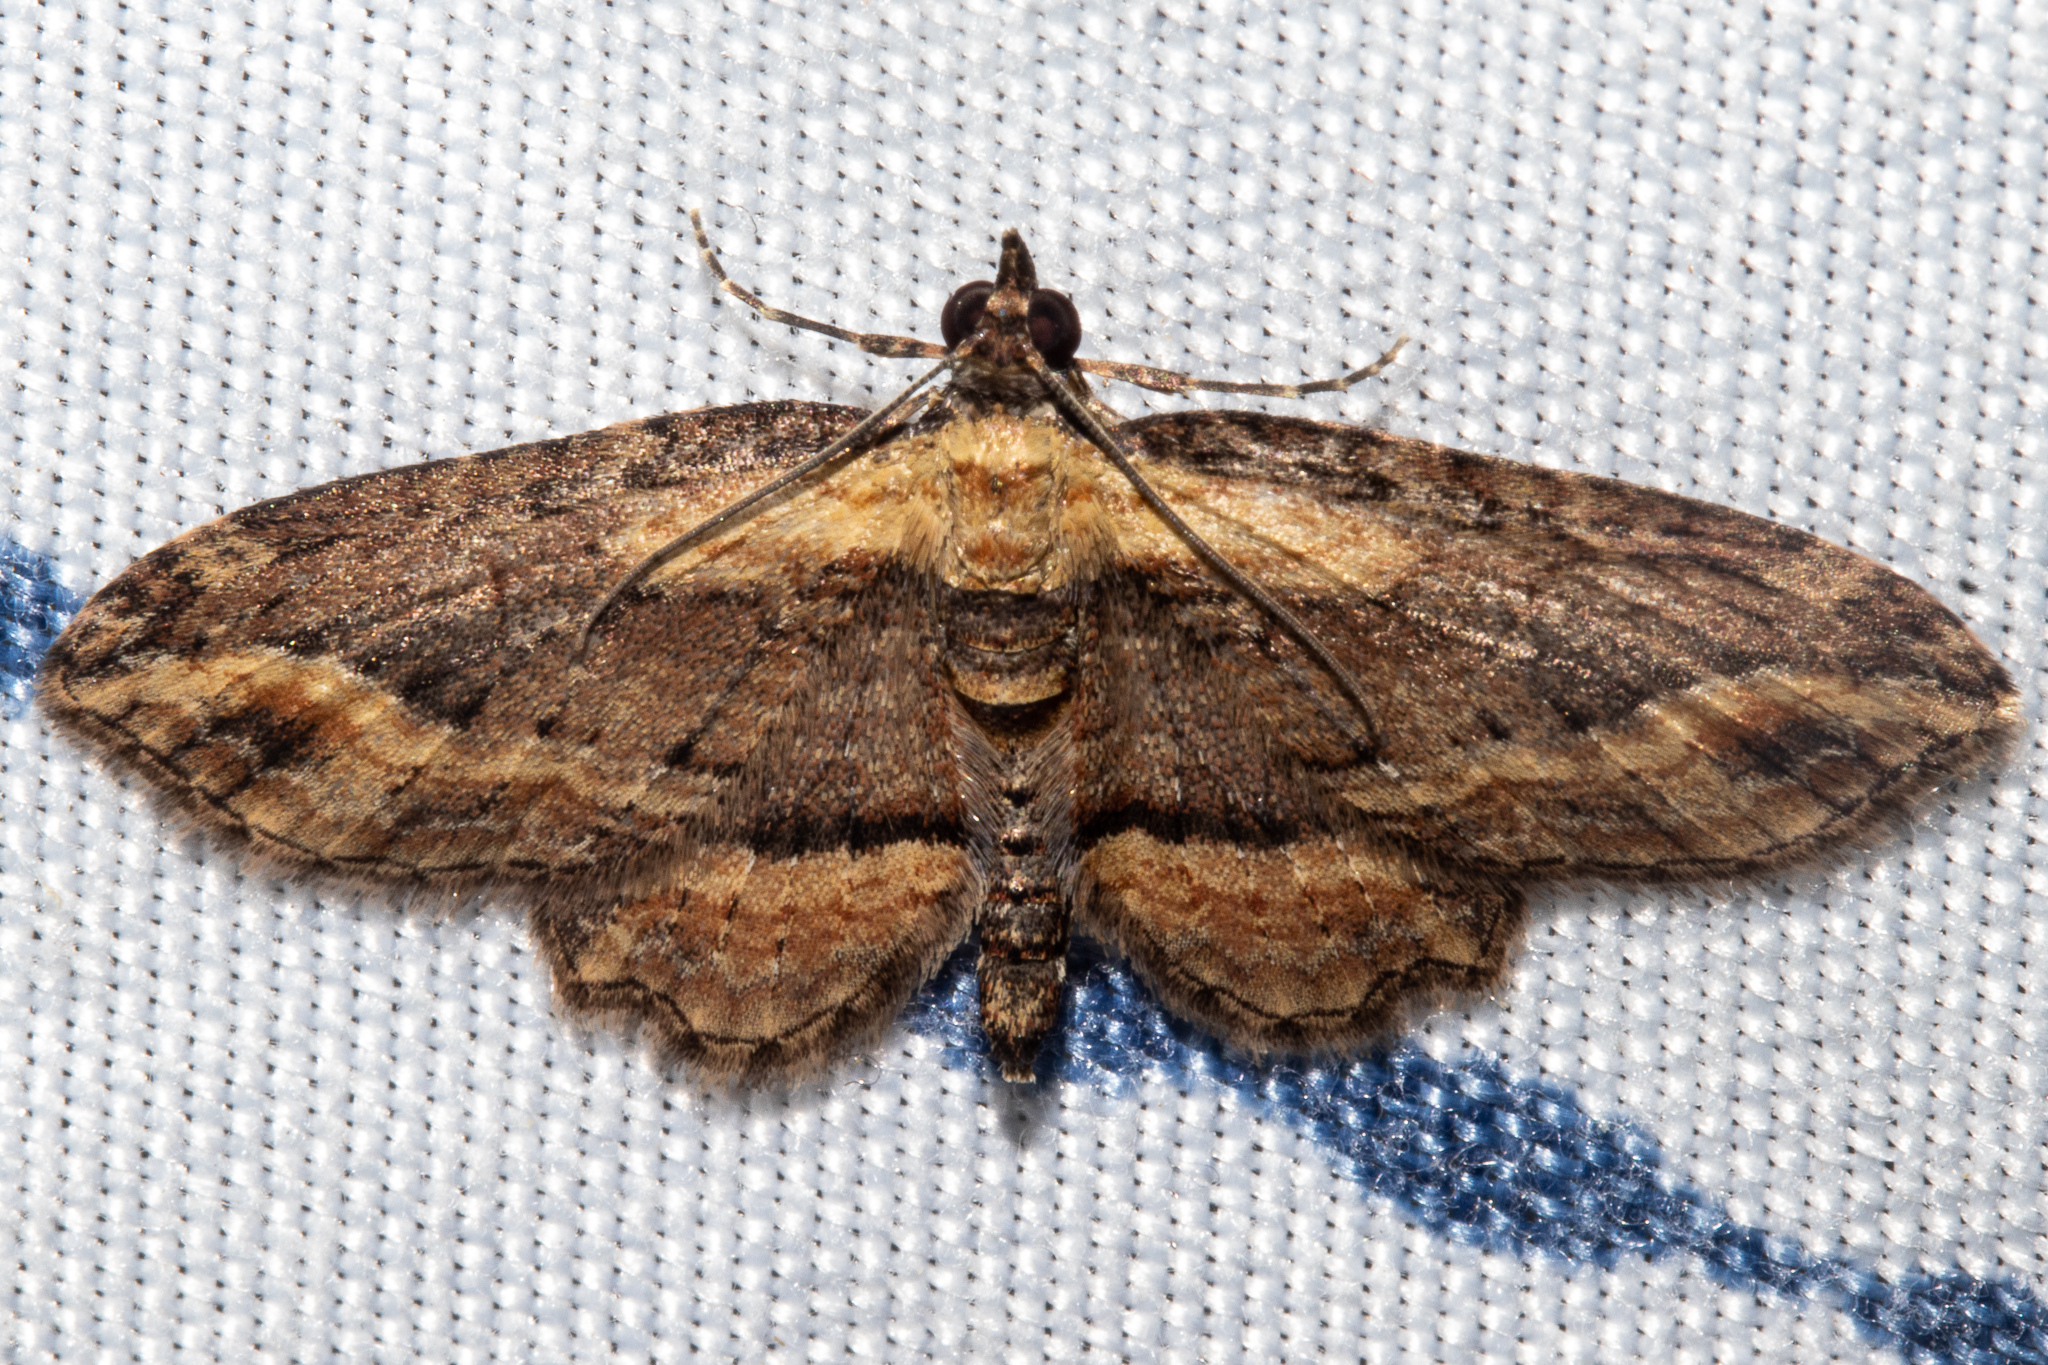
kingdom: Animalia
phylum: Arthropoda
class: Insecta
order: Lepidoptera
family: Geometridae
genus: Chloroclystis
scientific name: Chloroclystis filata
